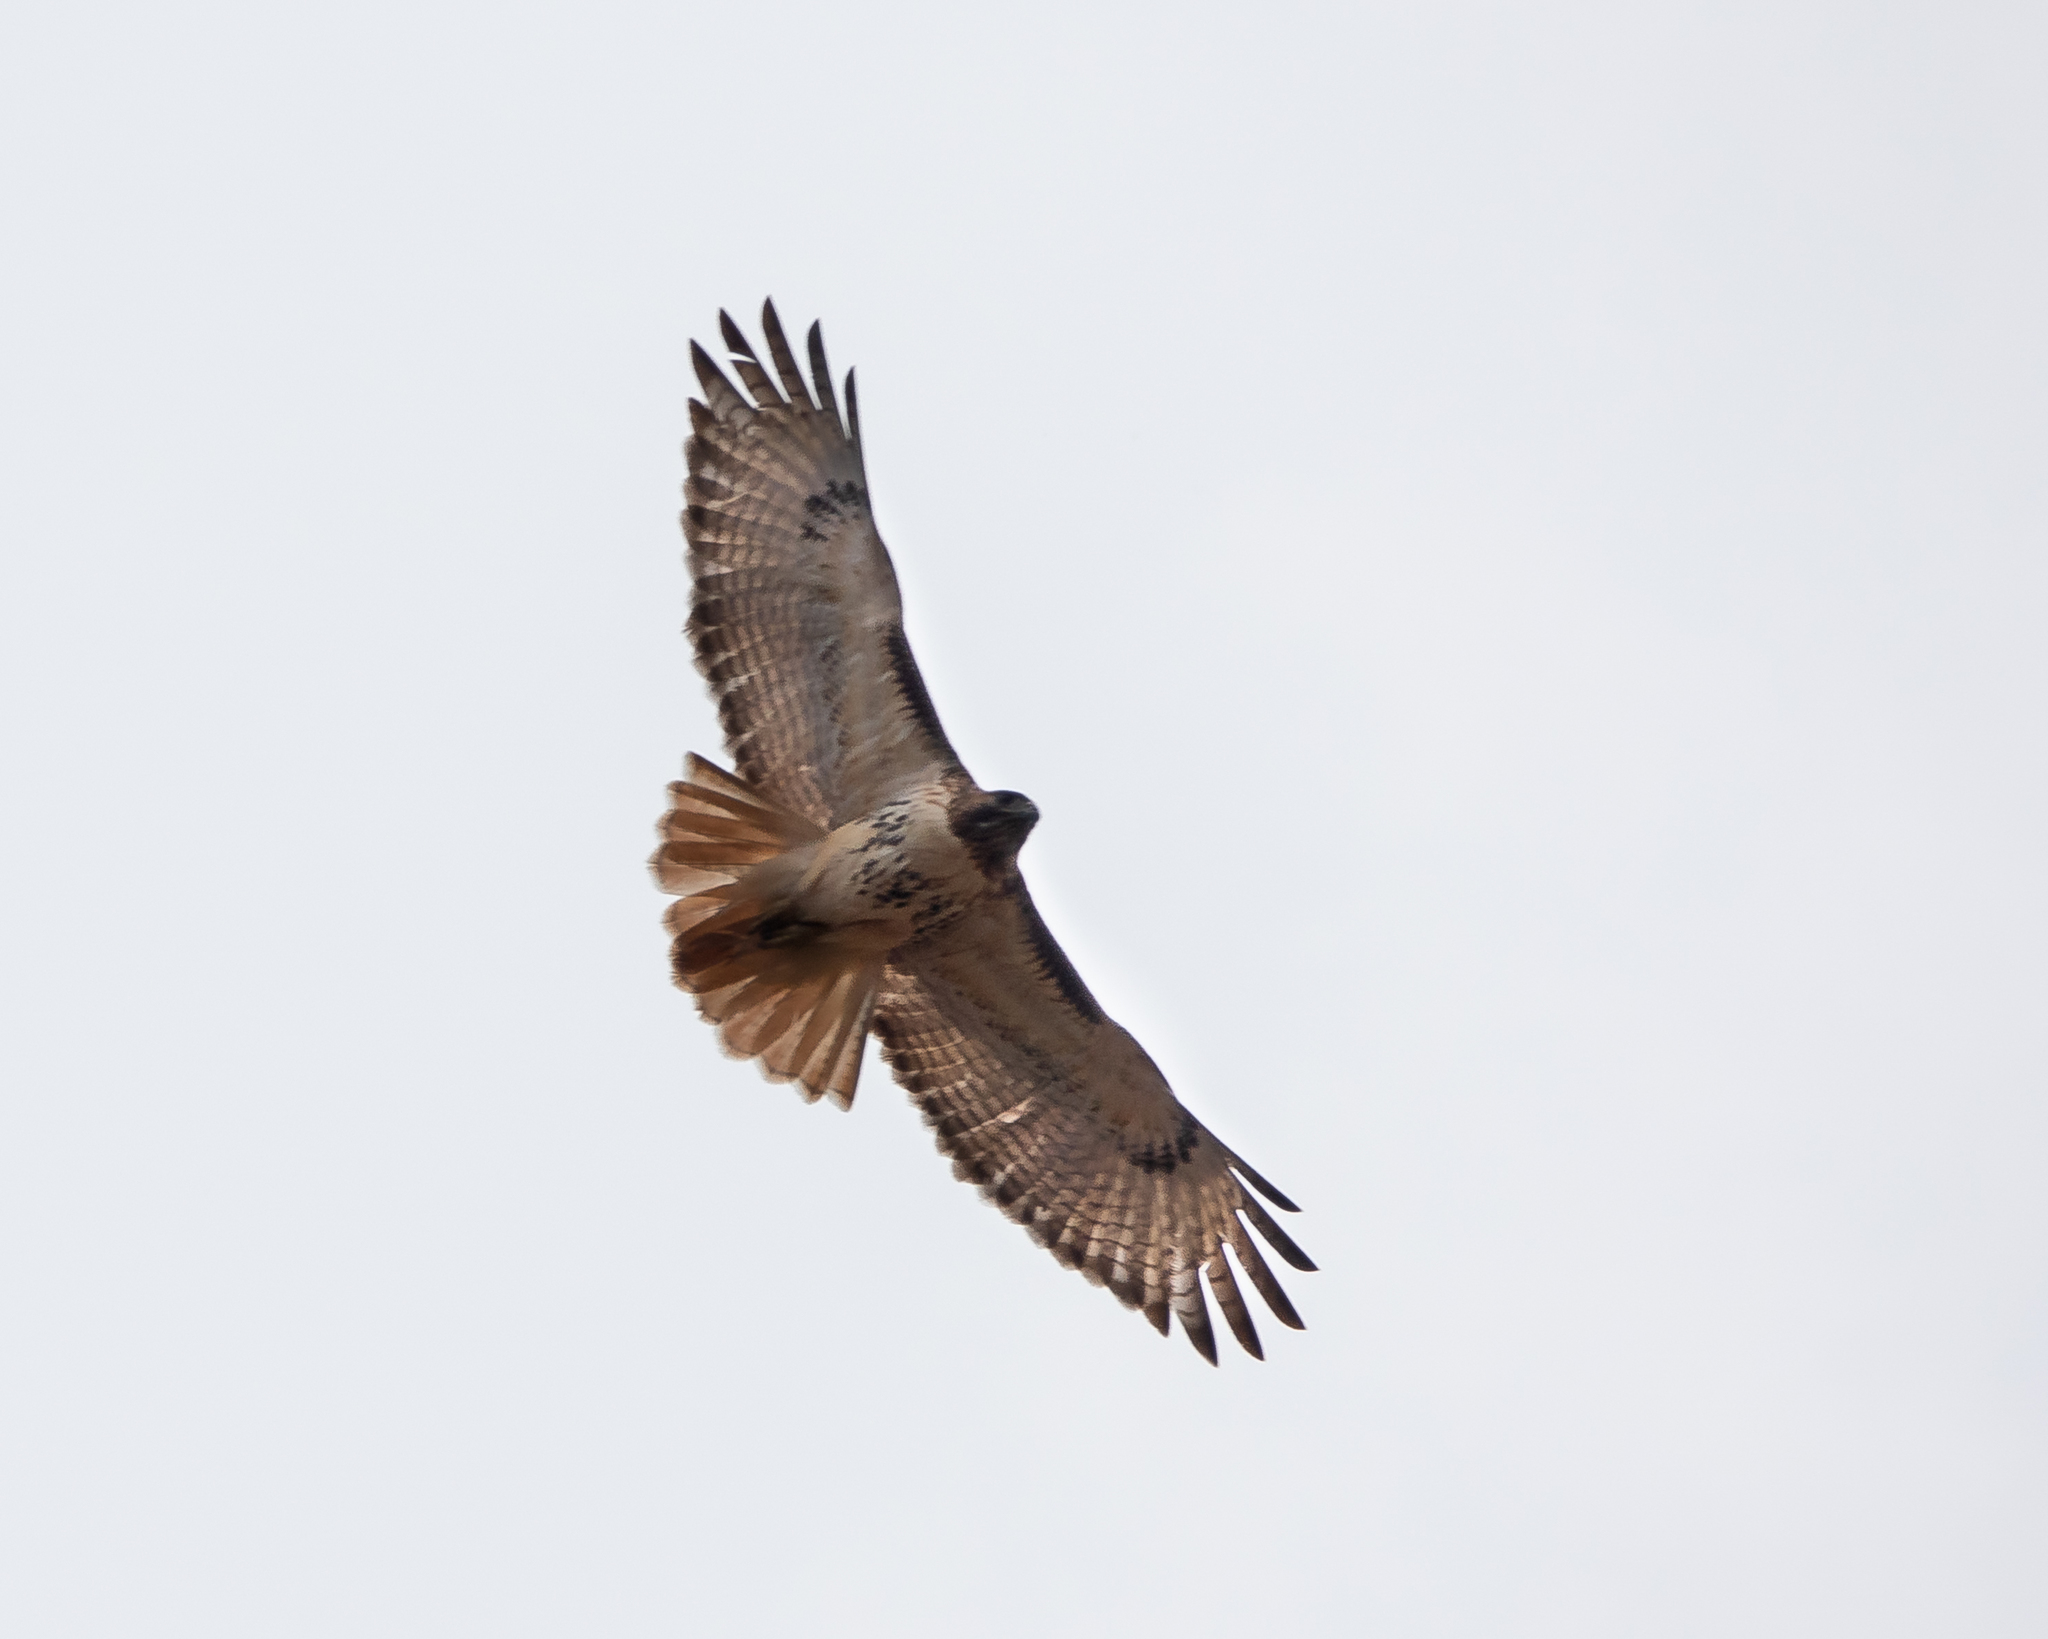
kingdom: Animalia
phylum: Chordata
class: Aves
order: Accipitriformes
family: Accipitridae
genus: Buteo
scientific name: Buteo jamaicensis
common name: Red-tailed hawk
